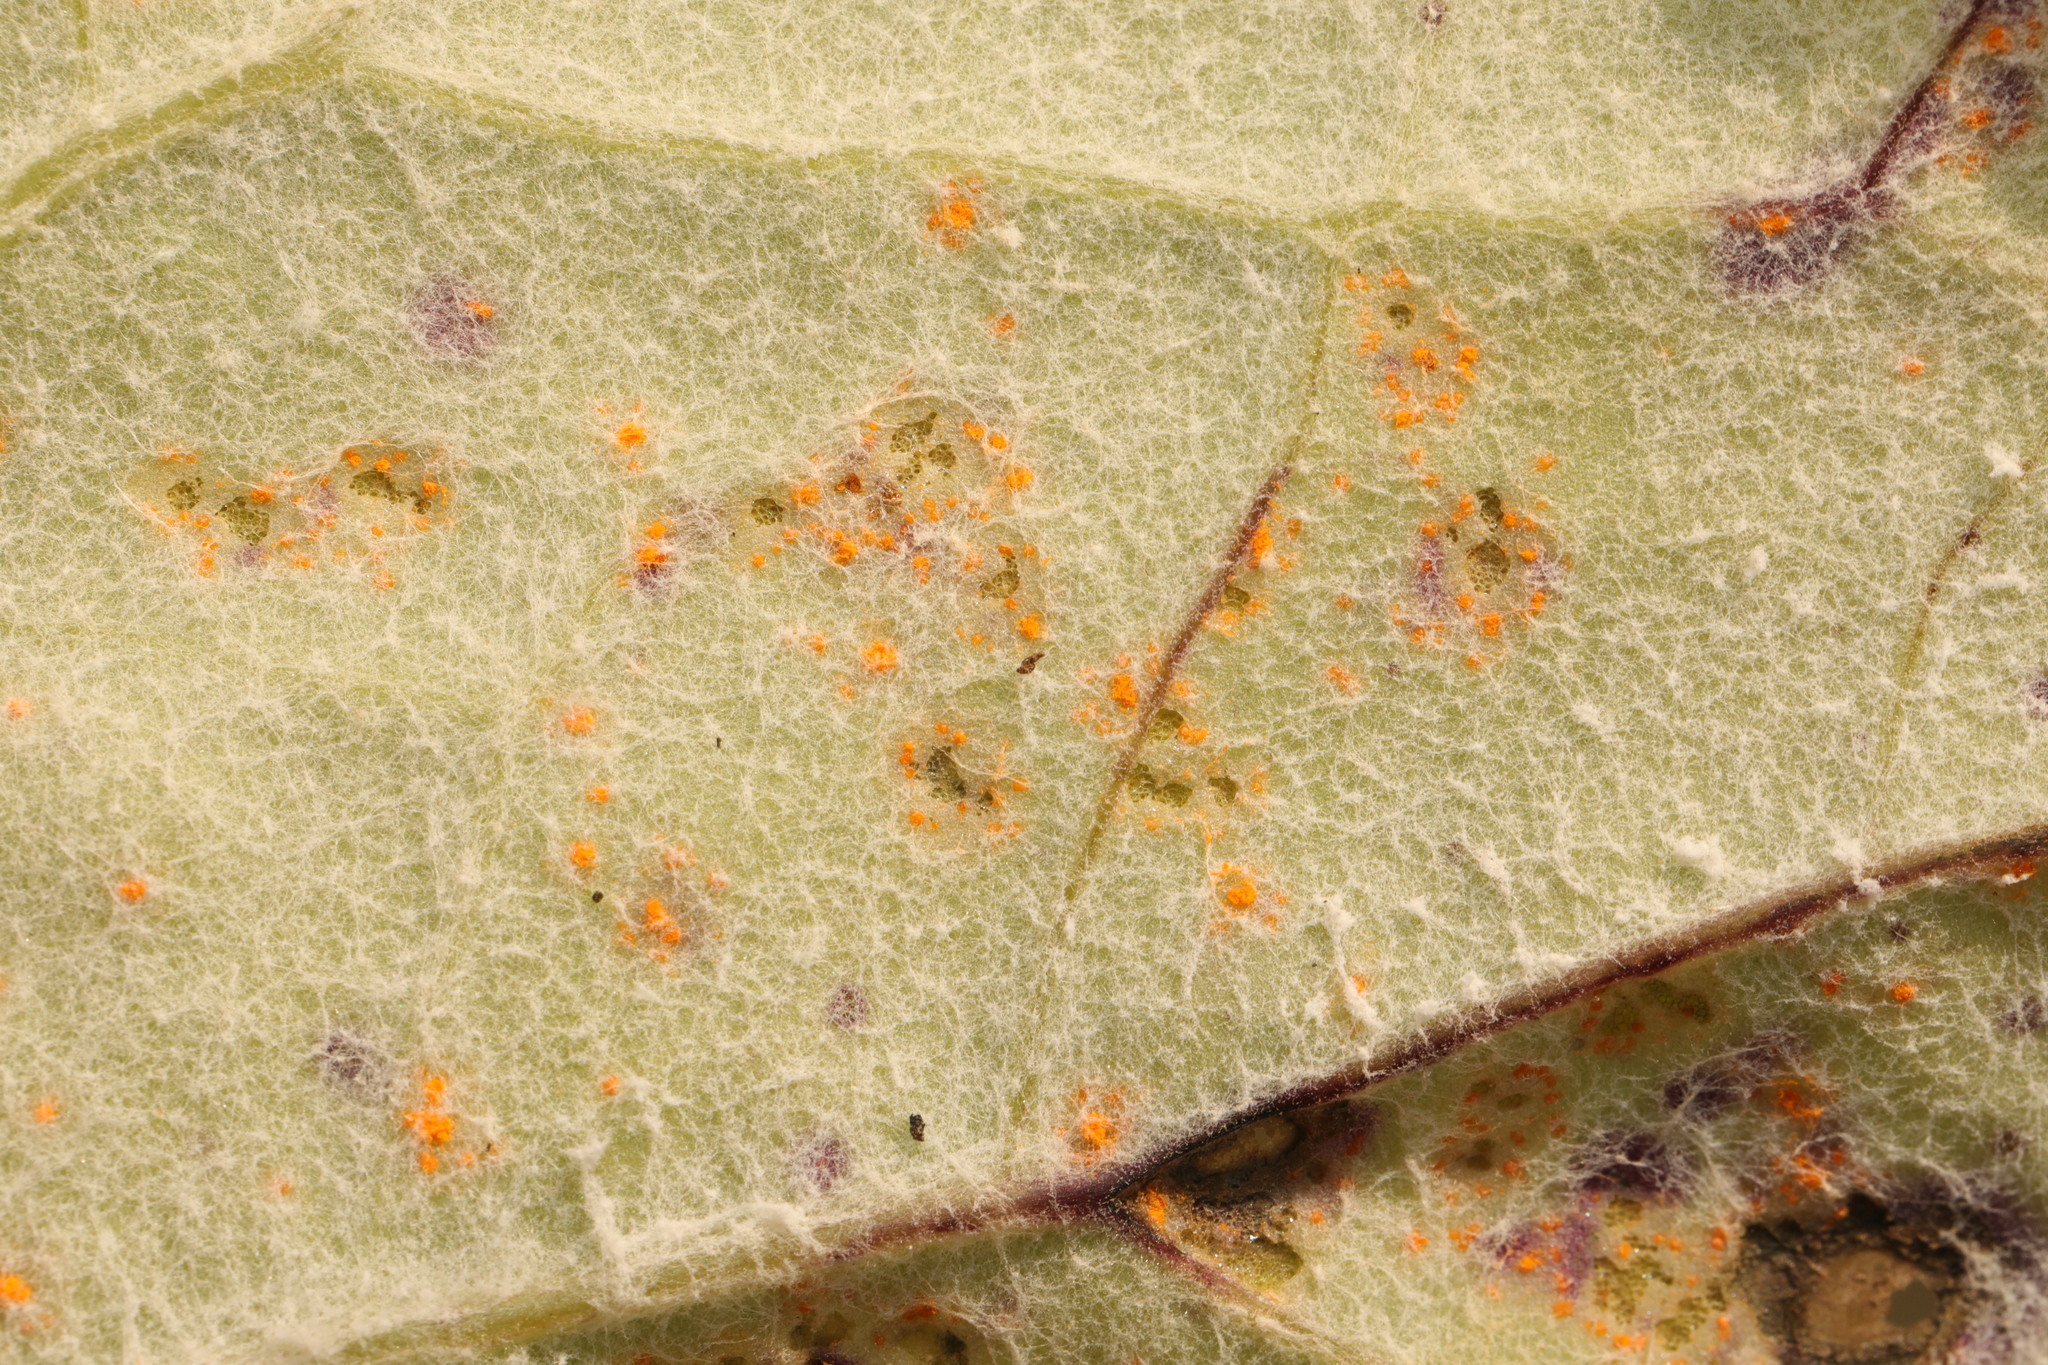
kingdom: Fungi
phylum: Basidiomycota
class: Pucciniomycetes
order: Pucciniales
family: Coleosporiaceae
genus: Coleosporium
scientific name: Coleosporium tussilaginis
